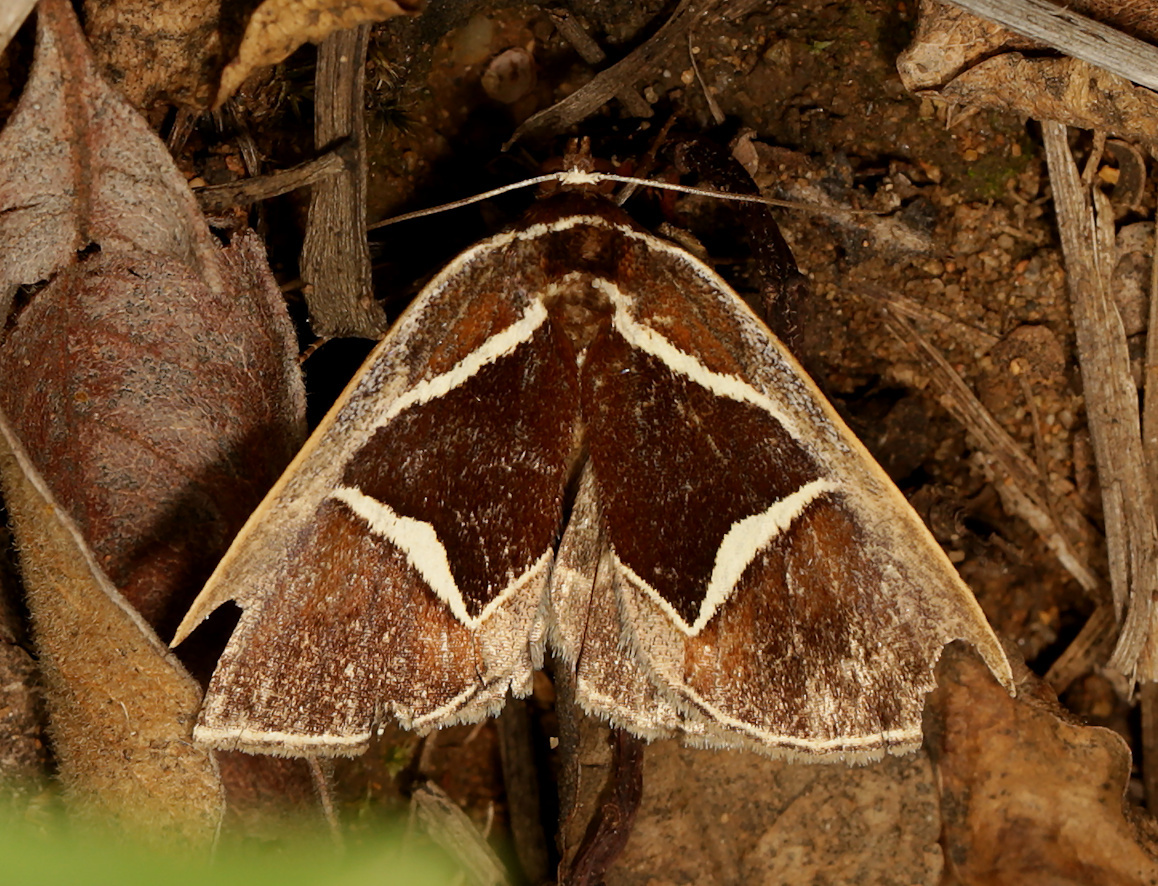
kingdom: Animalia
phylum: Arthropoda
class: Insecta
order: Lepidoptera
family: Erebidae
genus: Agamana
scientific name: Agamana pentagonalis
